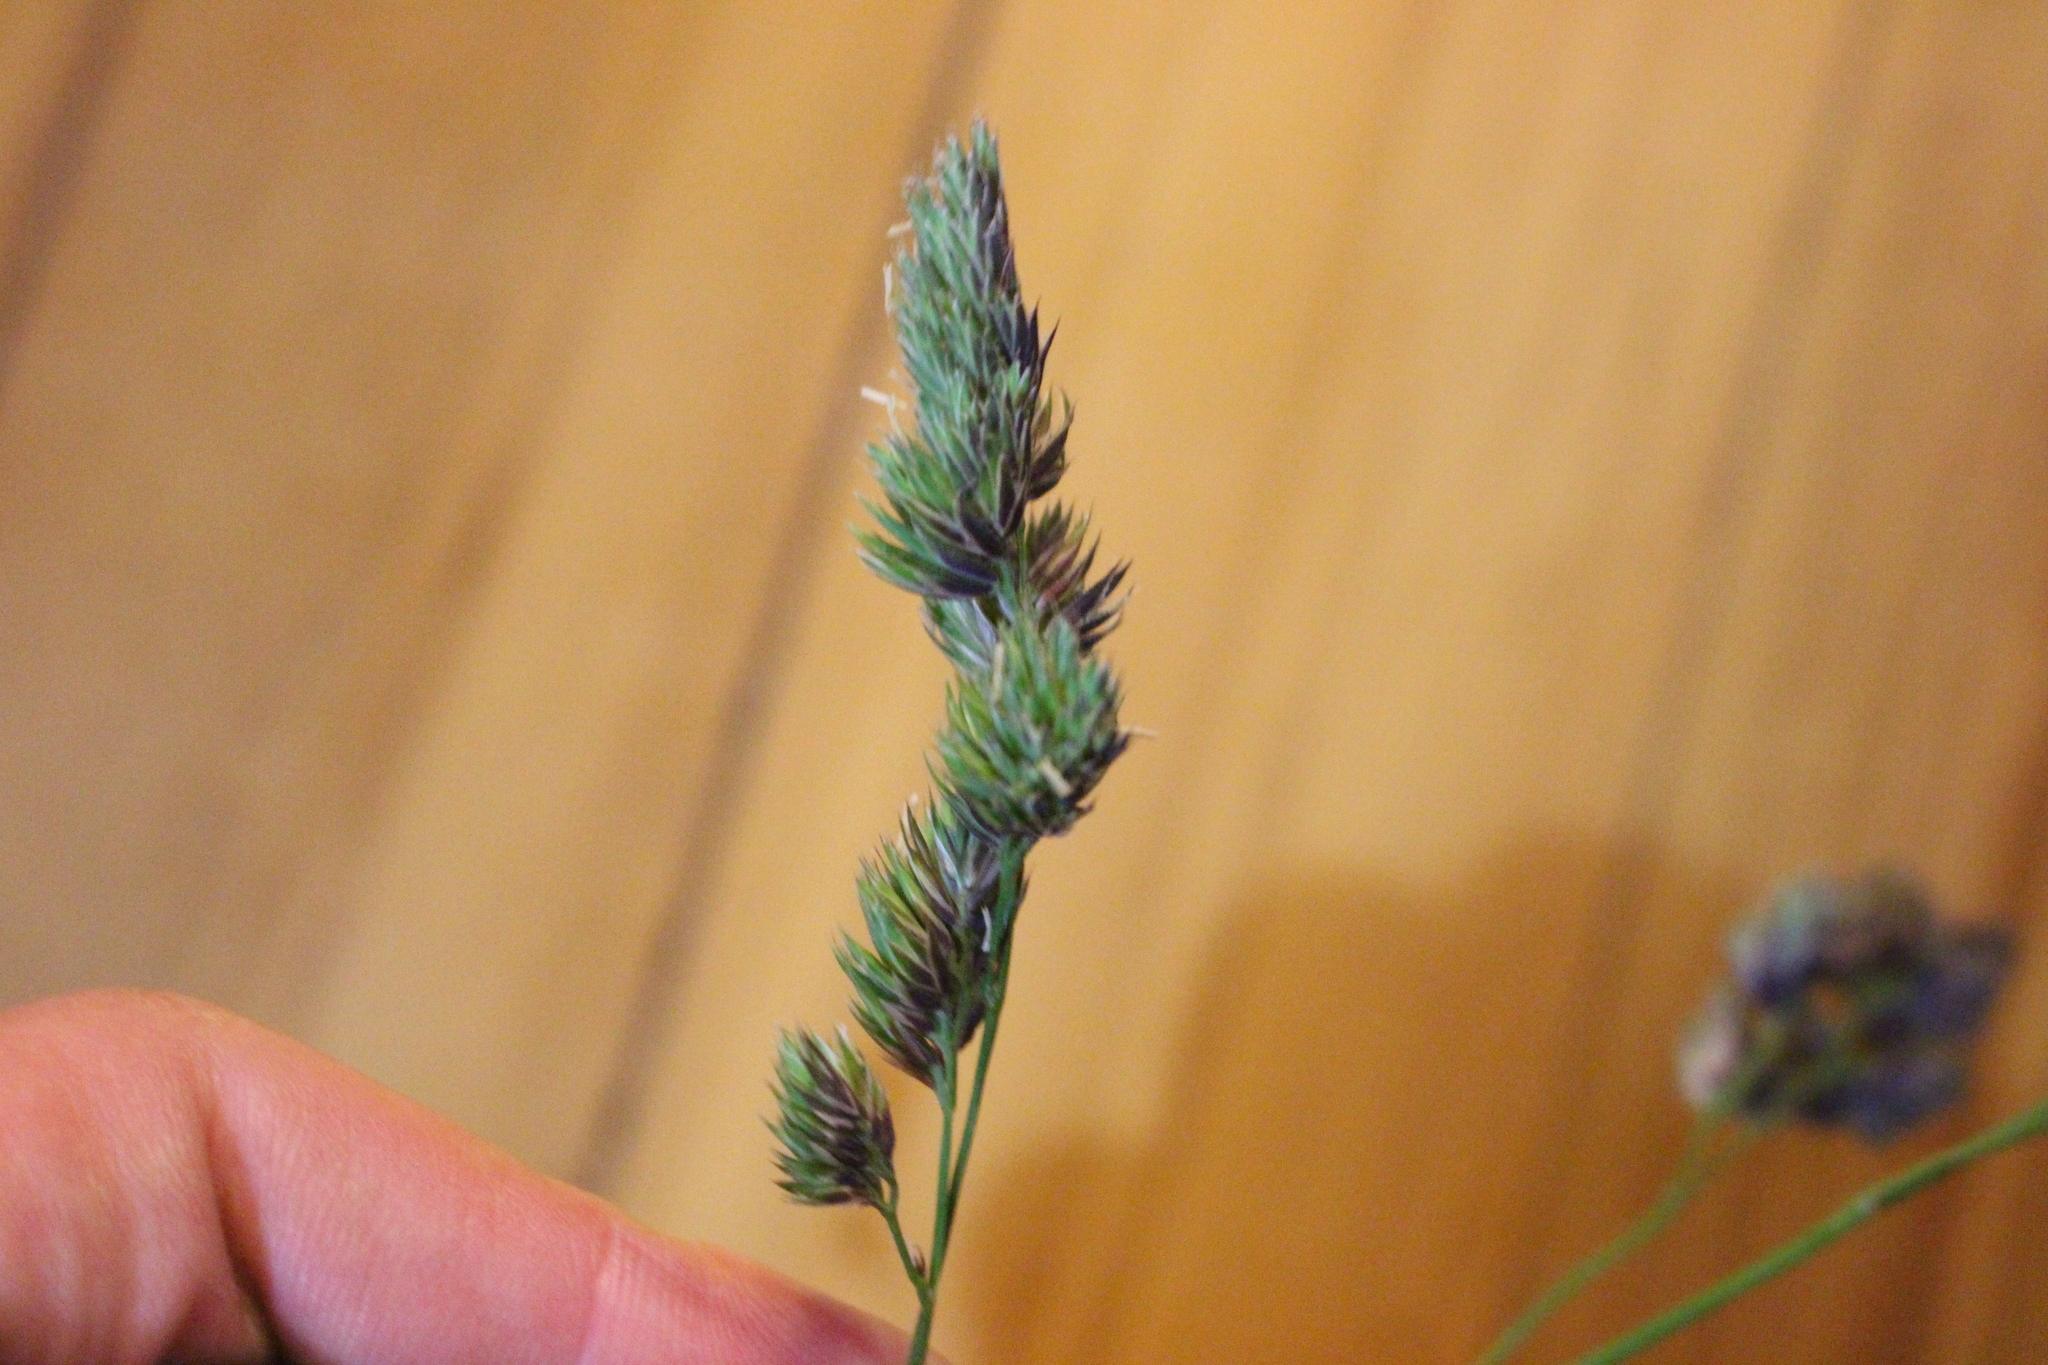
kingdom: Plantae
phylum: Tracheophyta
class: Liliopsida
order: Poales
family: Poaceae
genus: Dactylis
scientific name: Dactylis glomerata
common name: Orchardgrass
